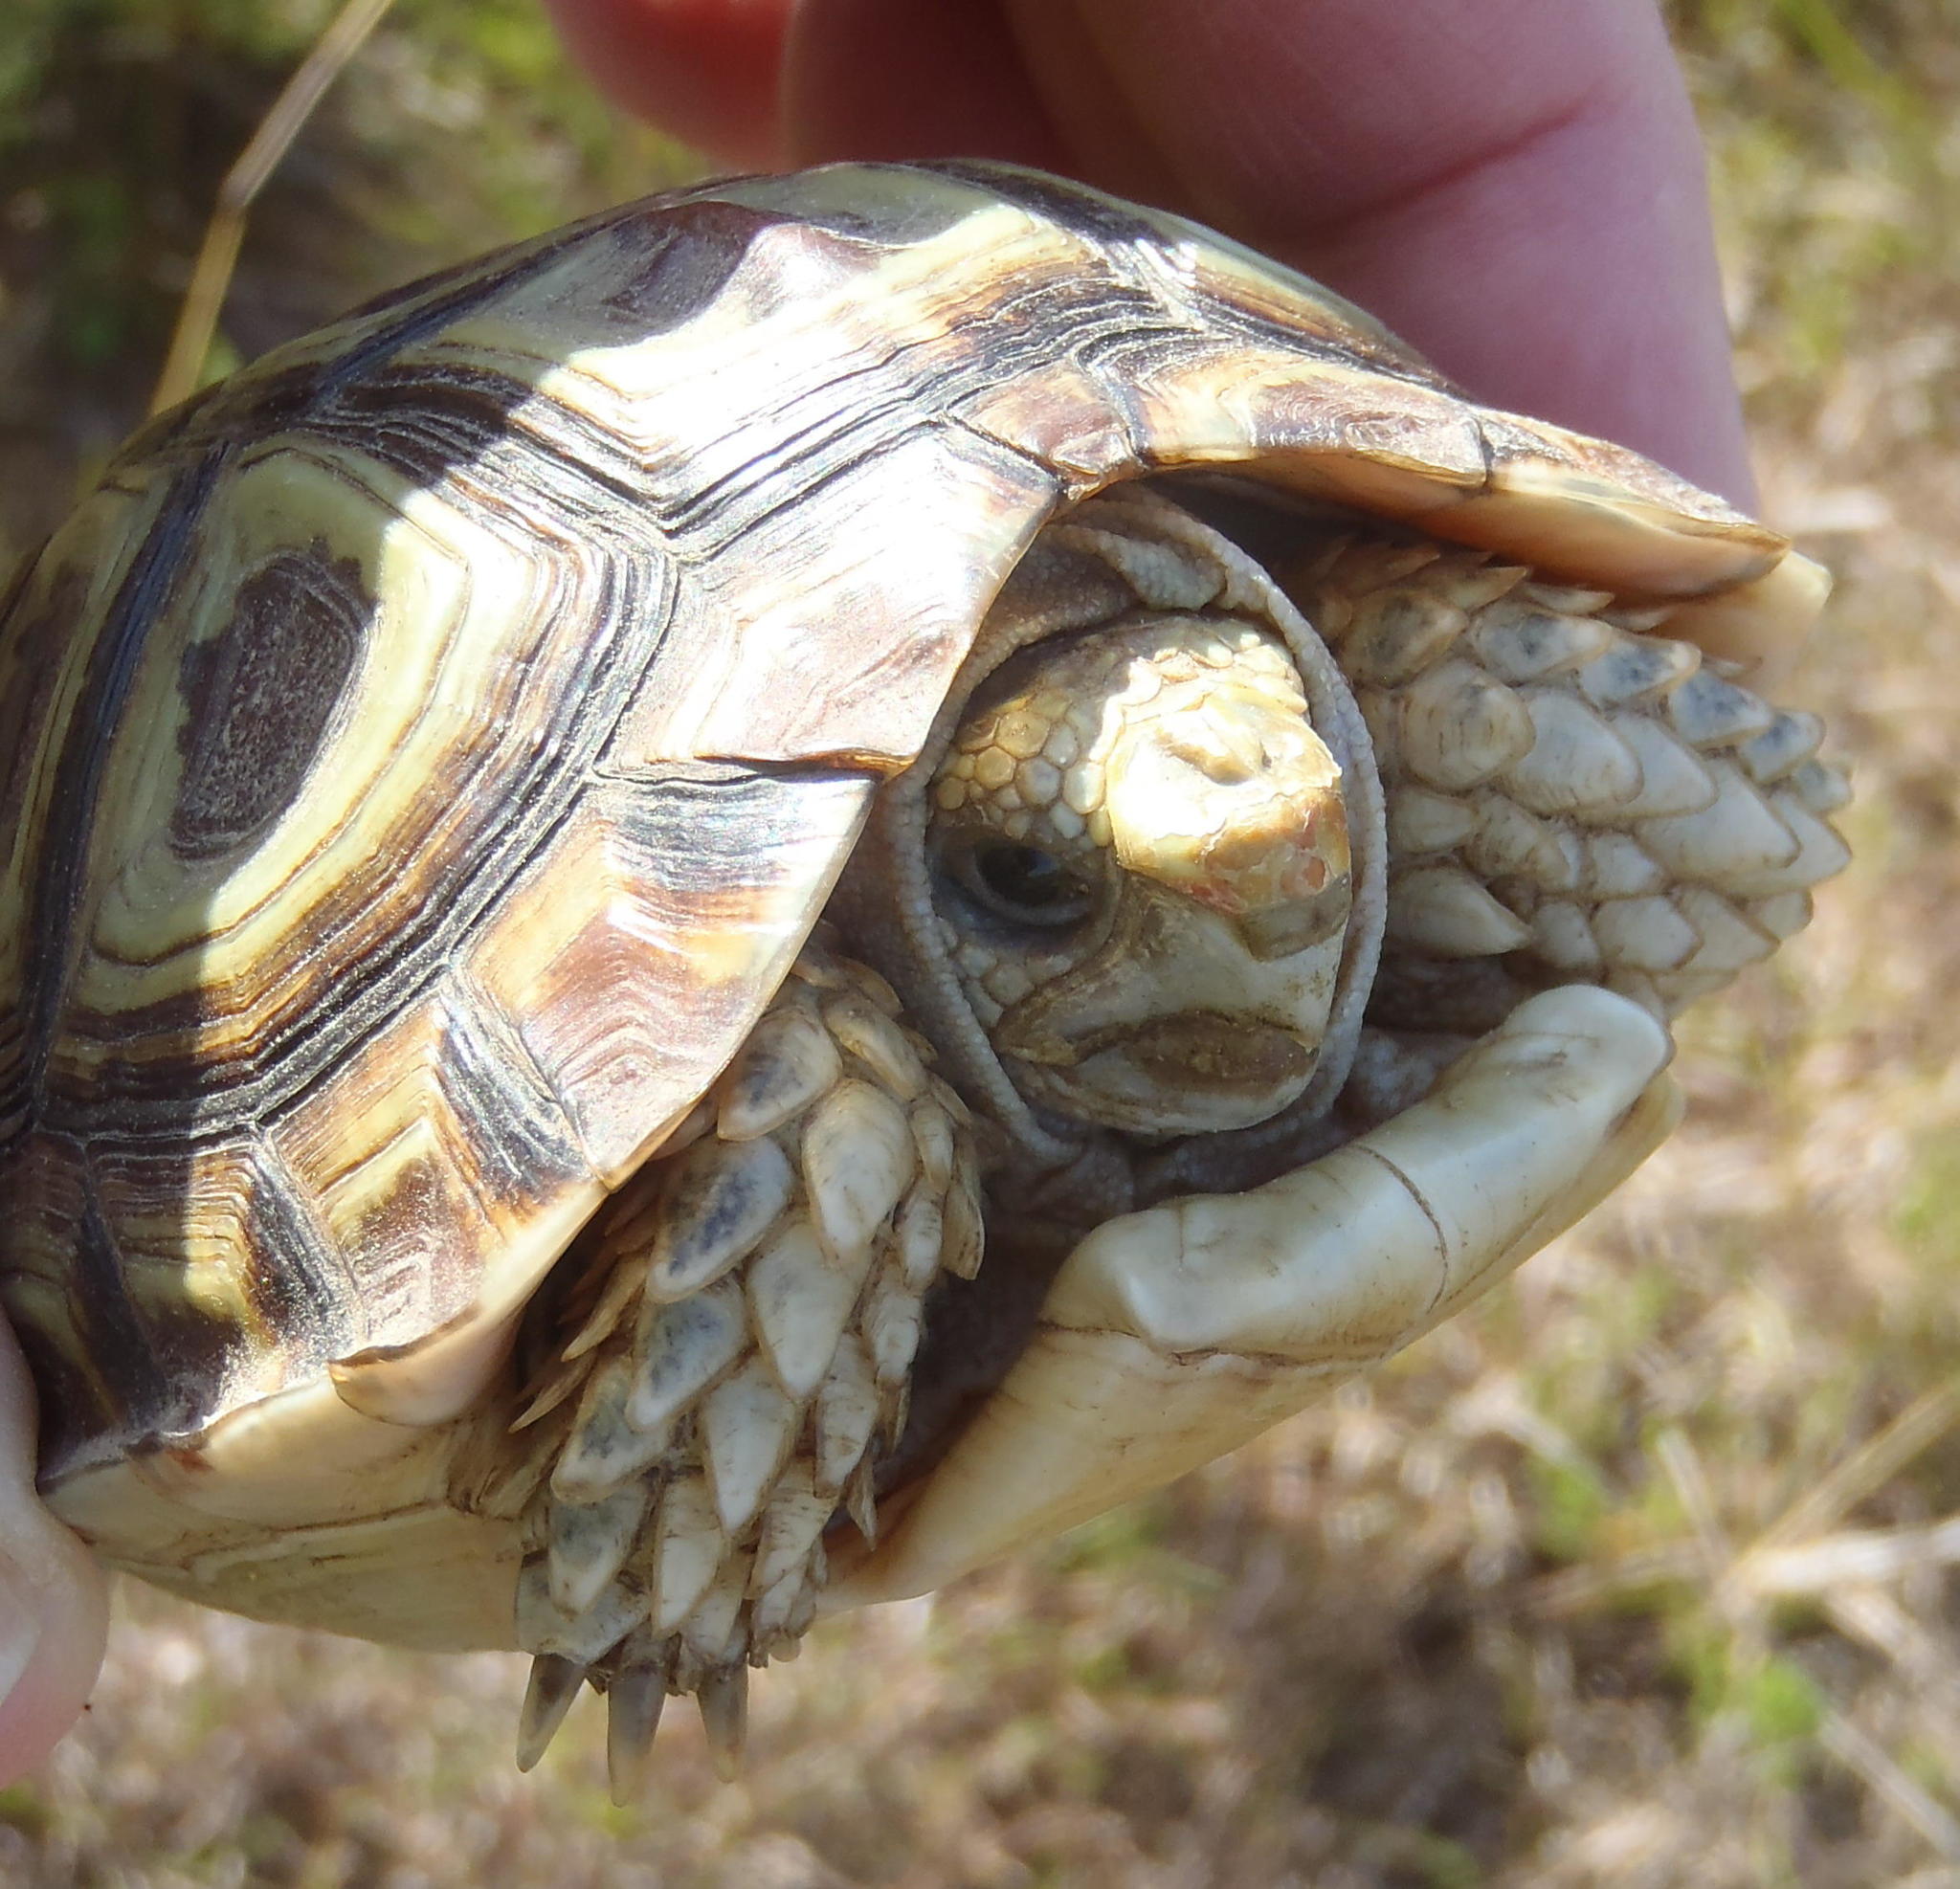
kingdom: Animalia
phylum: Chordata
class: Testudines
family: Testudinidae
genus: Homopus
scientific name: Homopus areolatus
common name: Parrot-beaked tortoise
